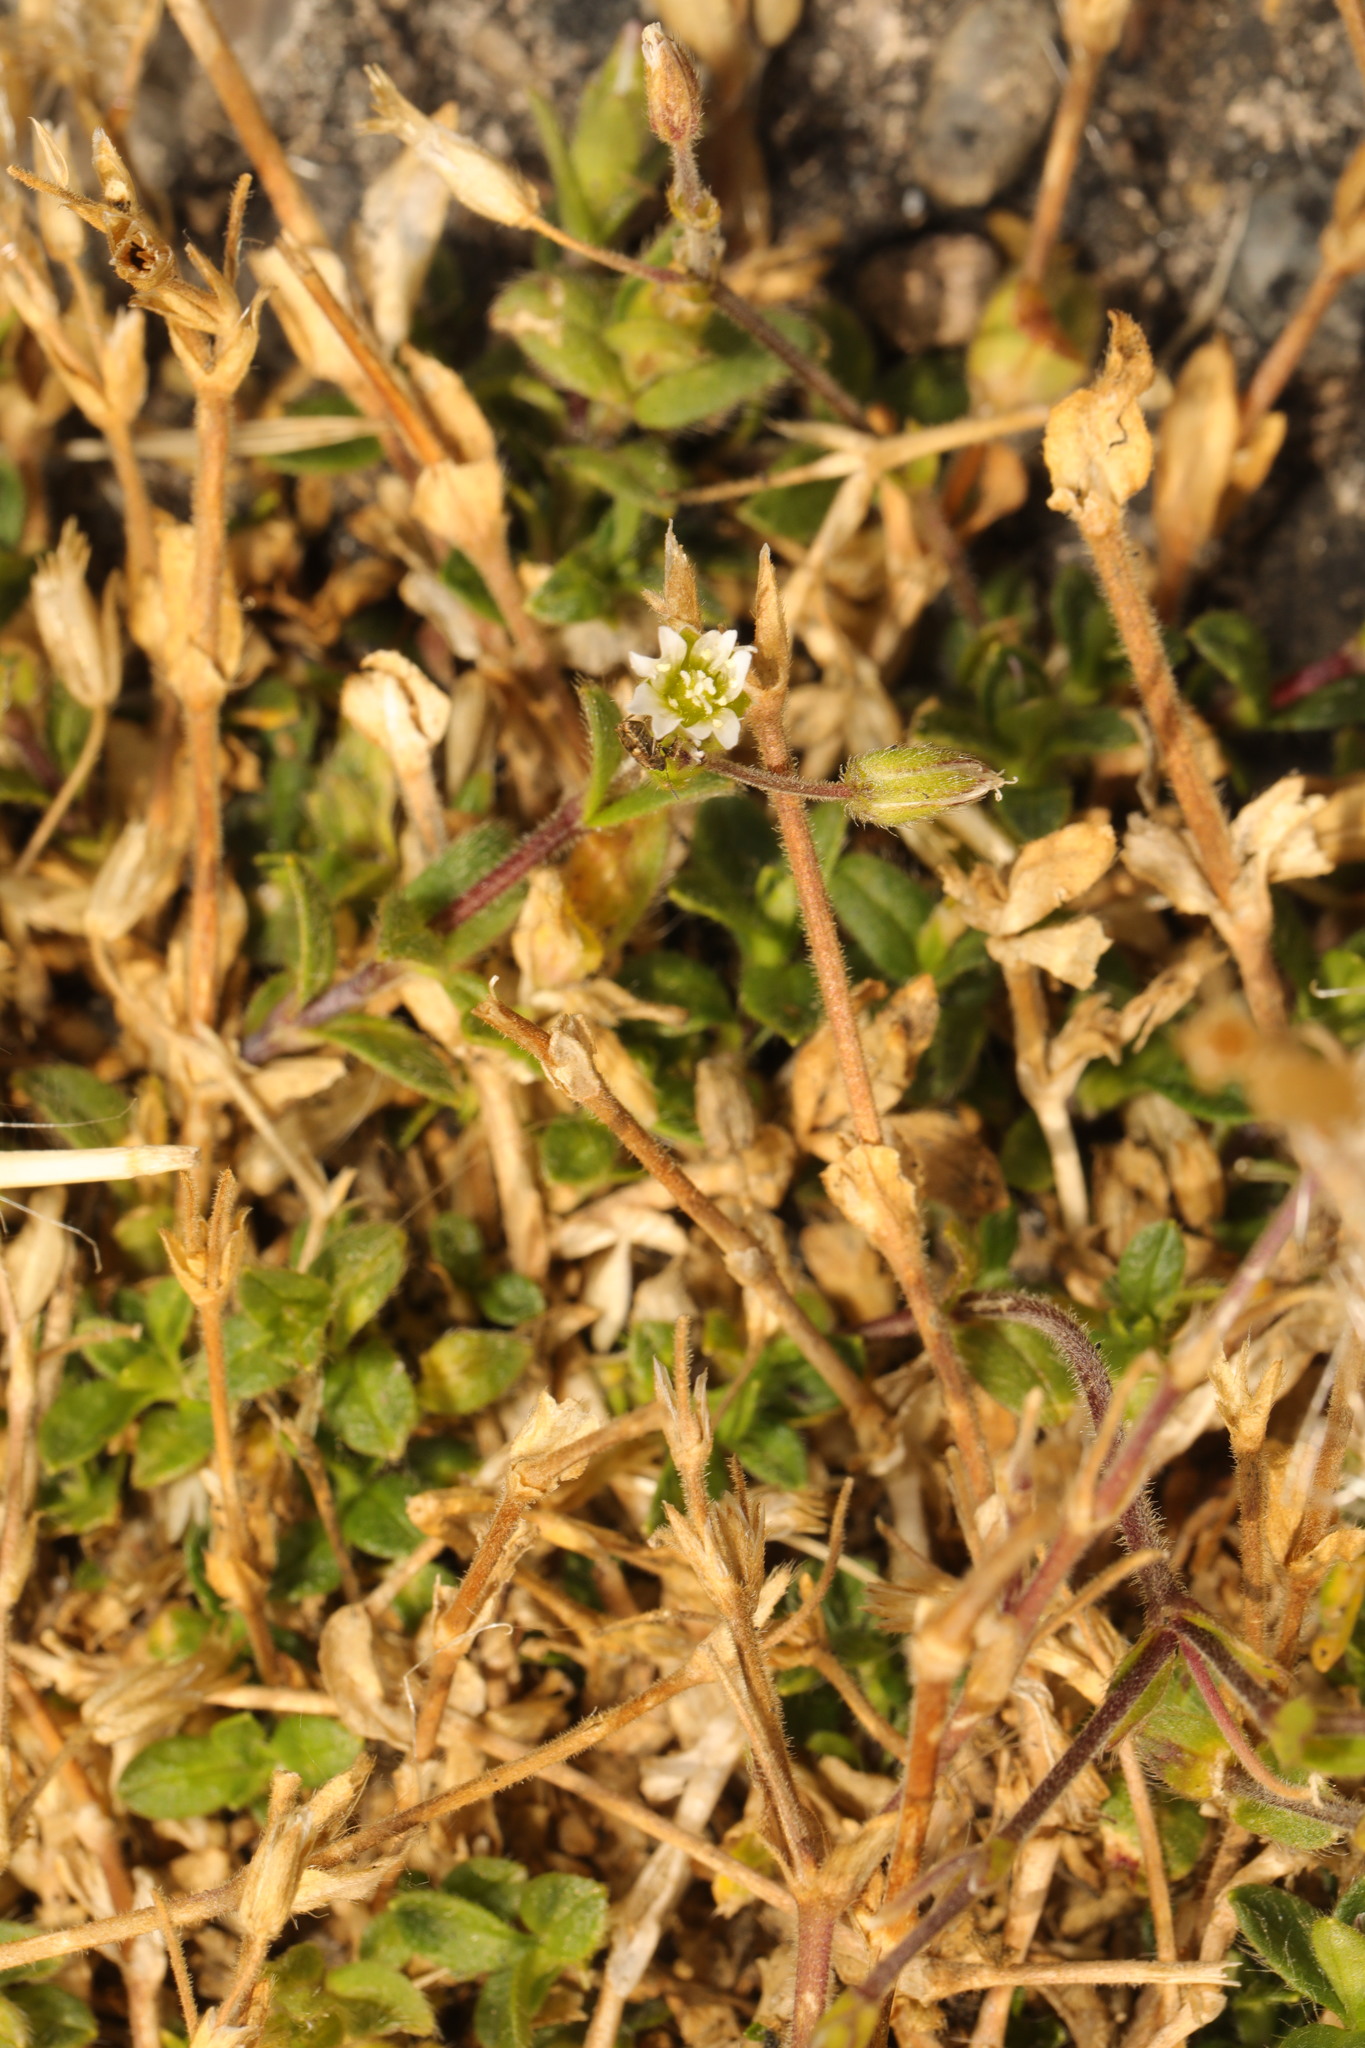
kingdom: Plantae
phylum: Tracheophyta
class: Magnoliopsida
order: Caryophyllales
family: Caryophyllaceae
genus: Cerastium
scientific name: Cerastium fontanum
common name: Common mouse-ear
